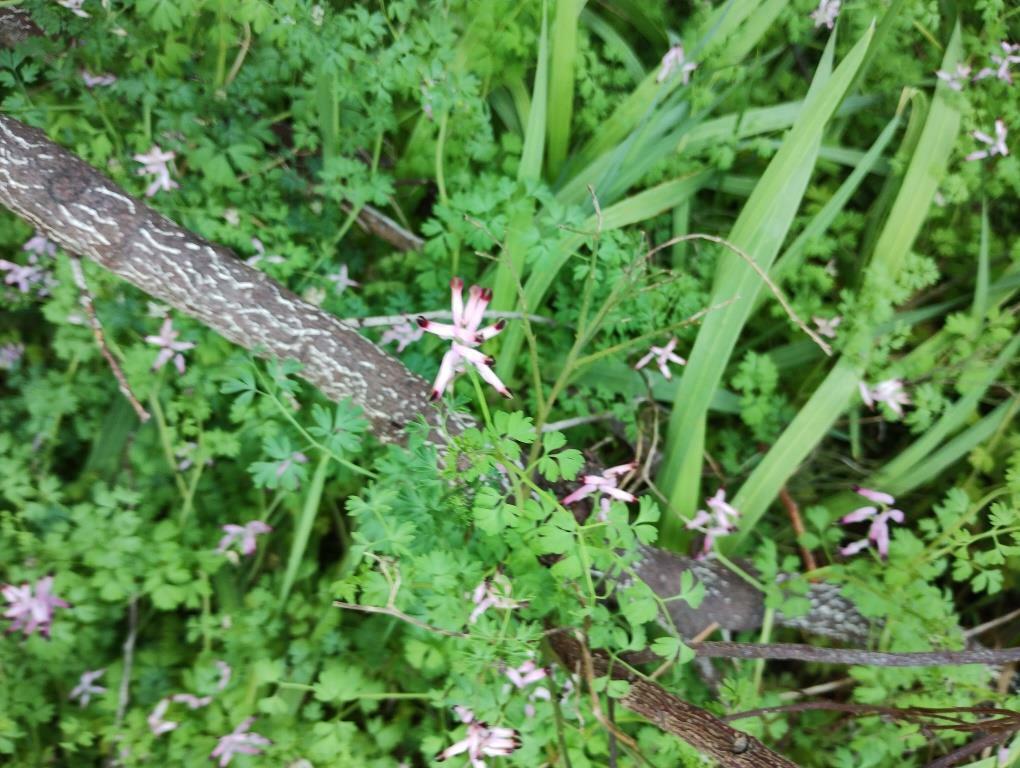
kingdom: Plantae
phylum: Tracheophyta
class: Magnoliopsida
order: Ranunculales
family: Papaveraceae
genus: Fumaria
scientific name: Fumaria muralis
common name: Common ramping-fumitory
